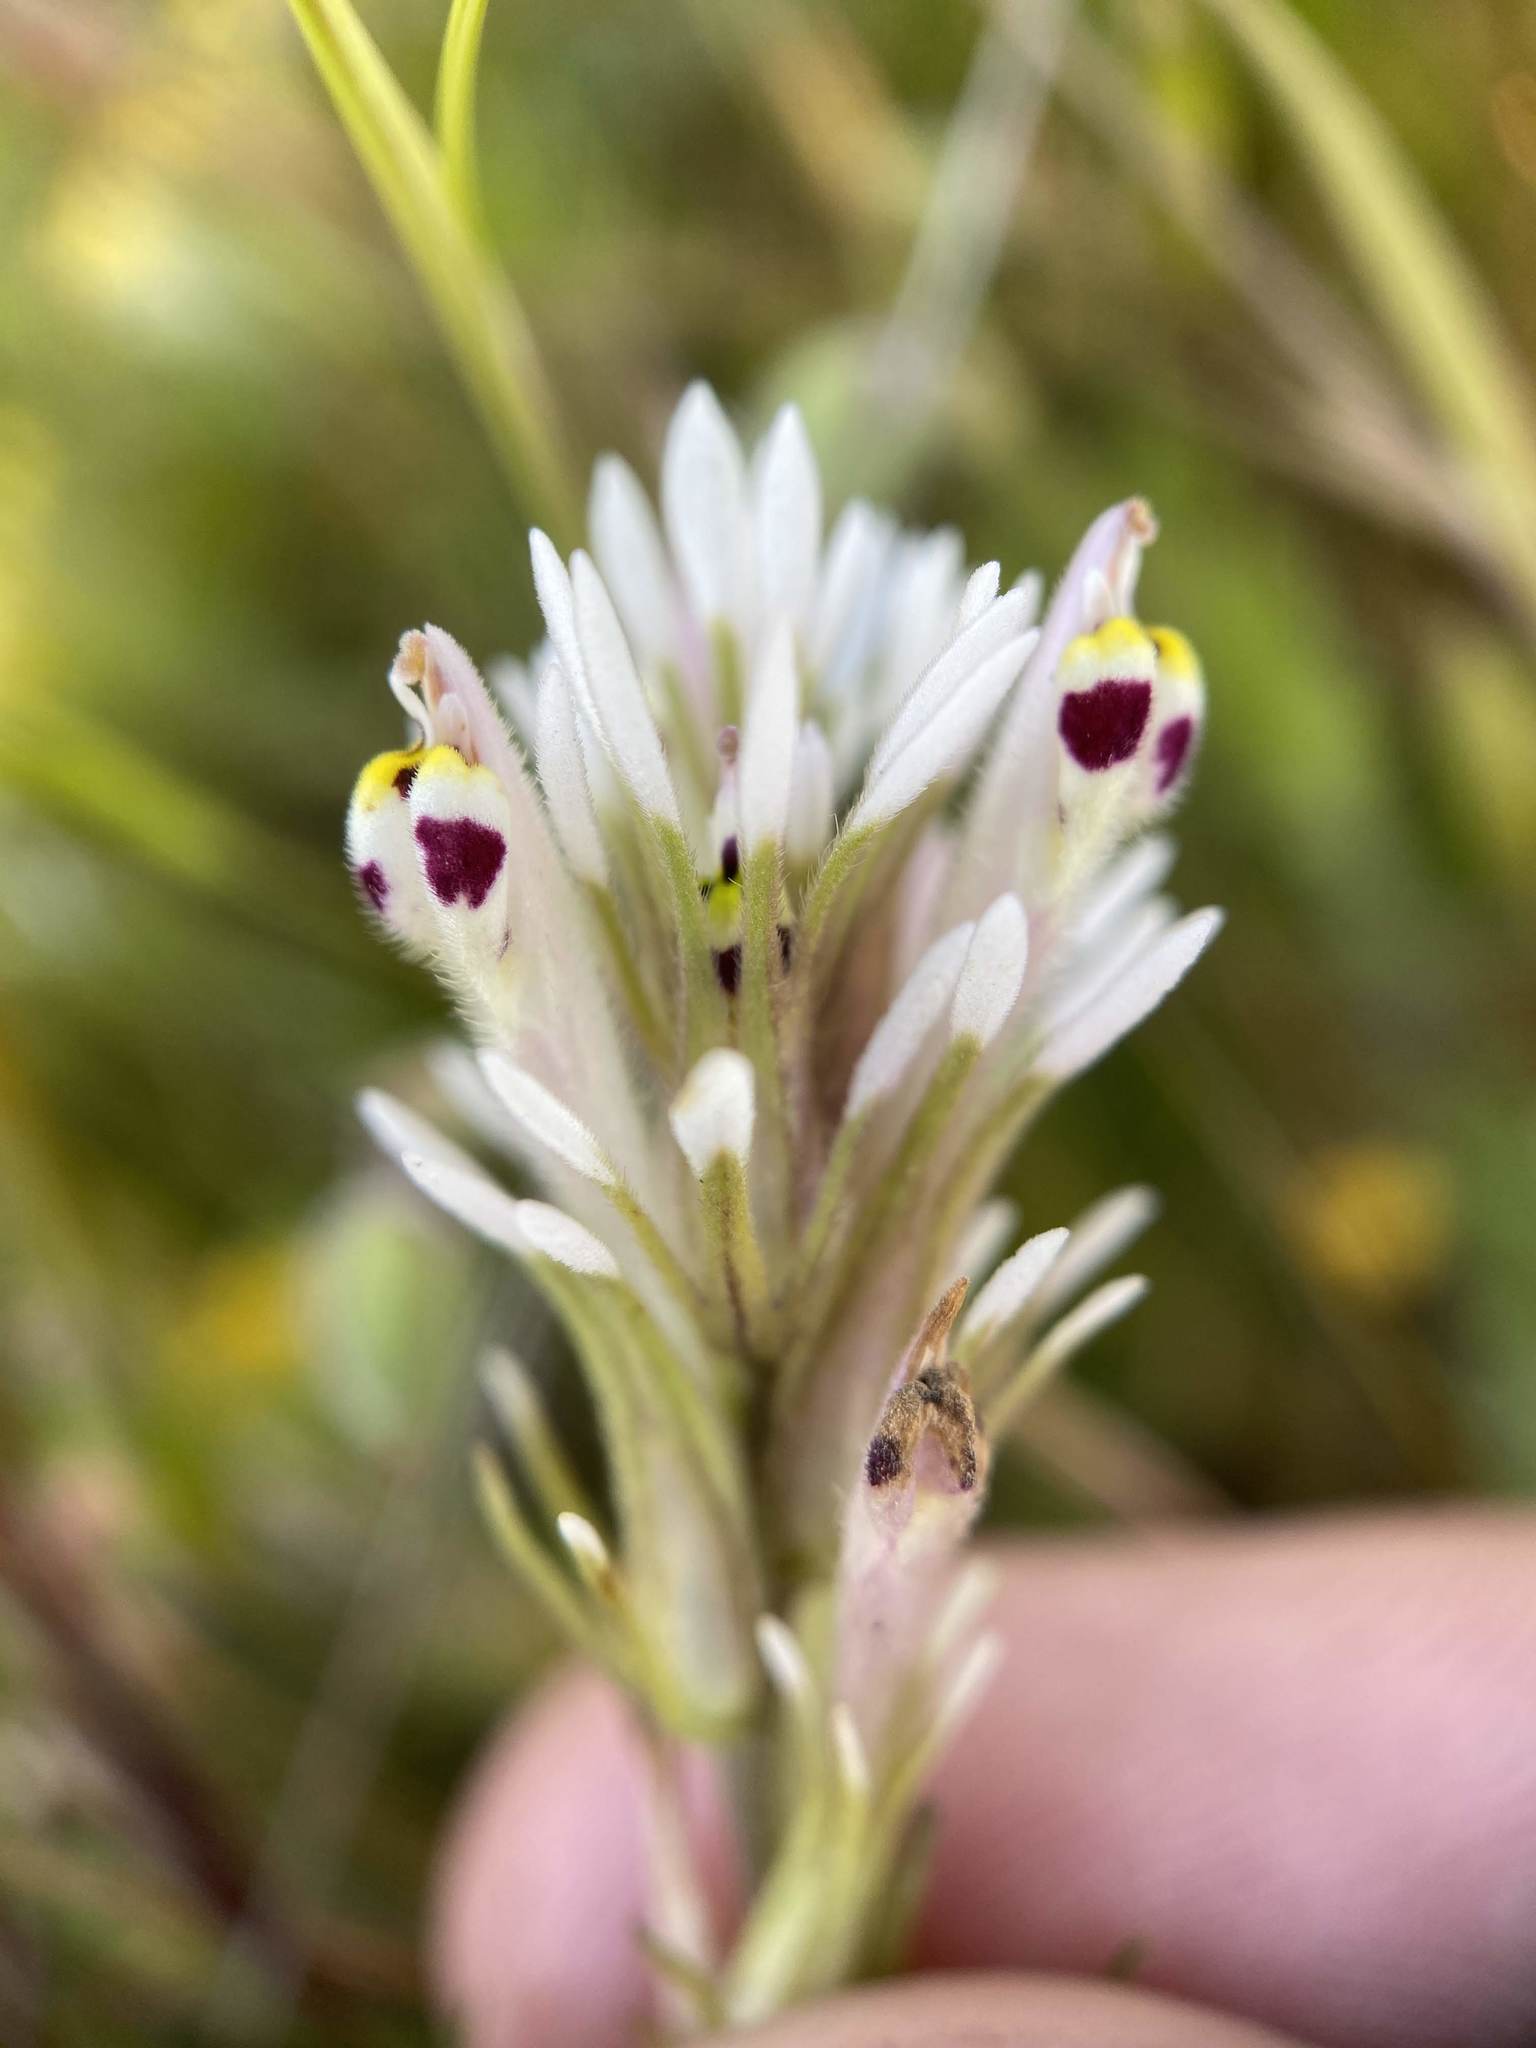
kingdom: Plantae
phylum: Tracheophyta
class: Magnoliopsida
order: Lamiales
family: Orobanchaceae
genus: Castilleja
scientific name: Castilleja attenuata
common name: Valley tassels
